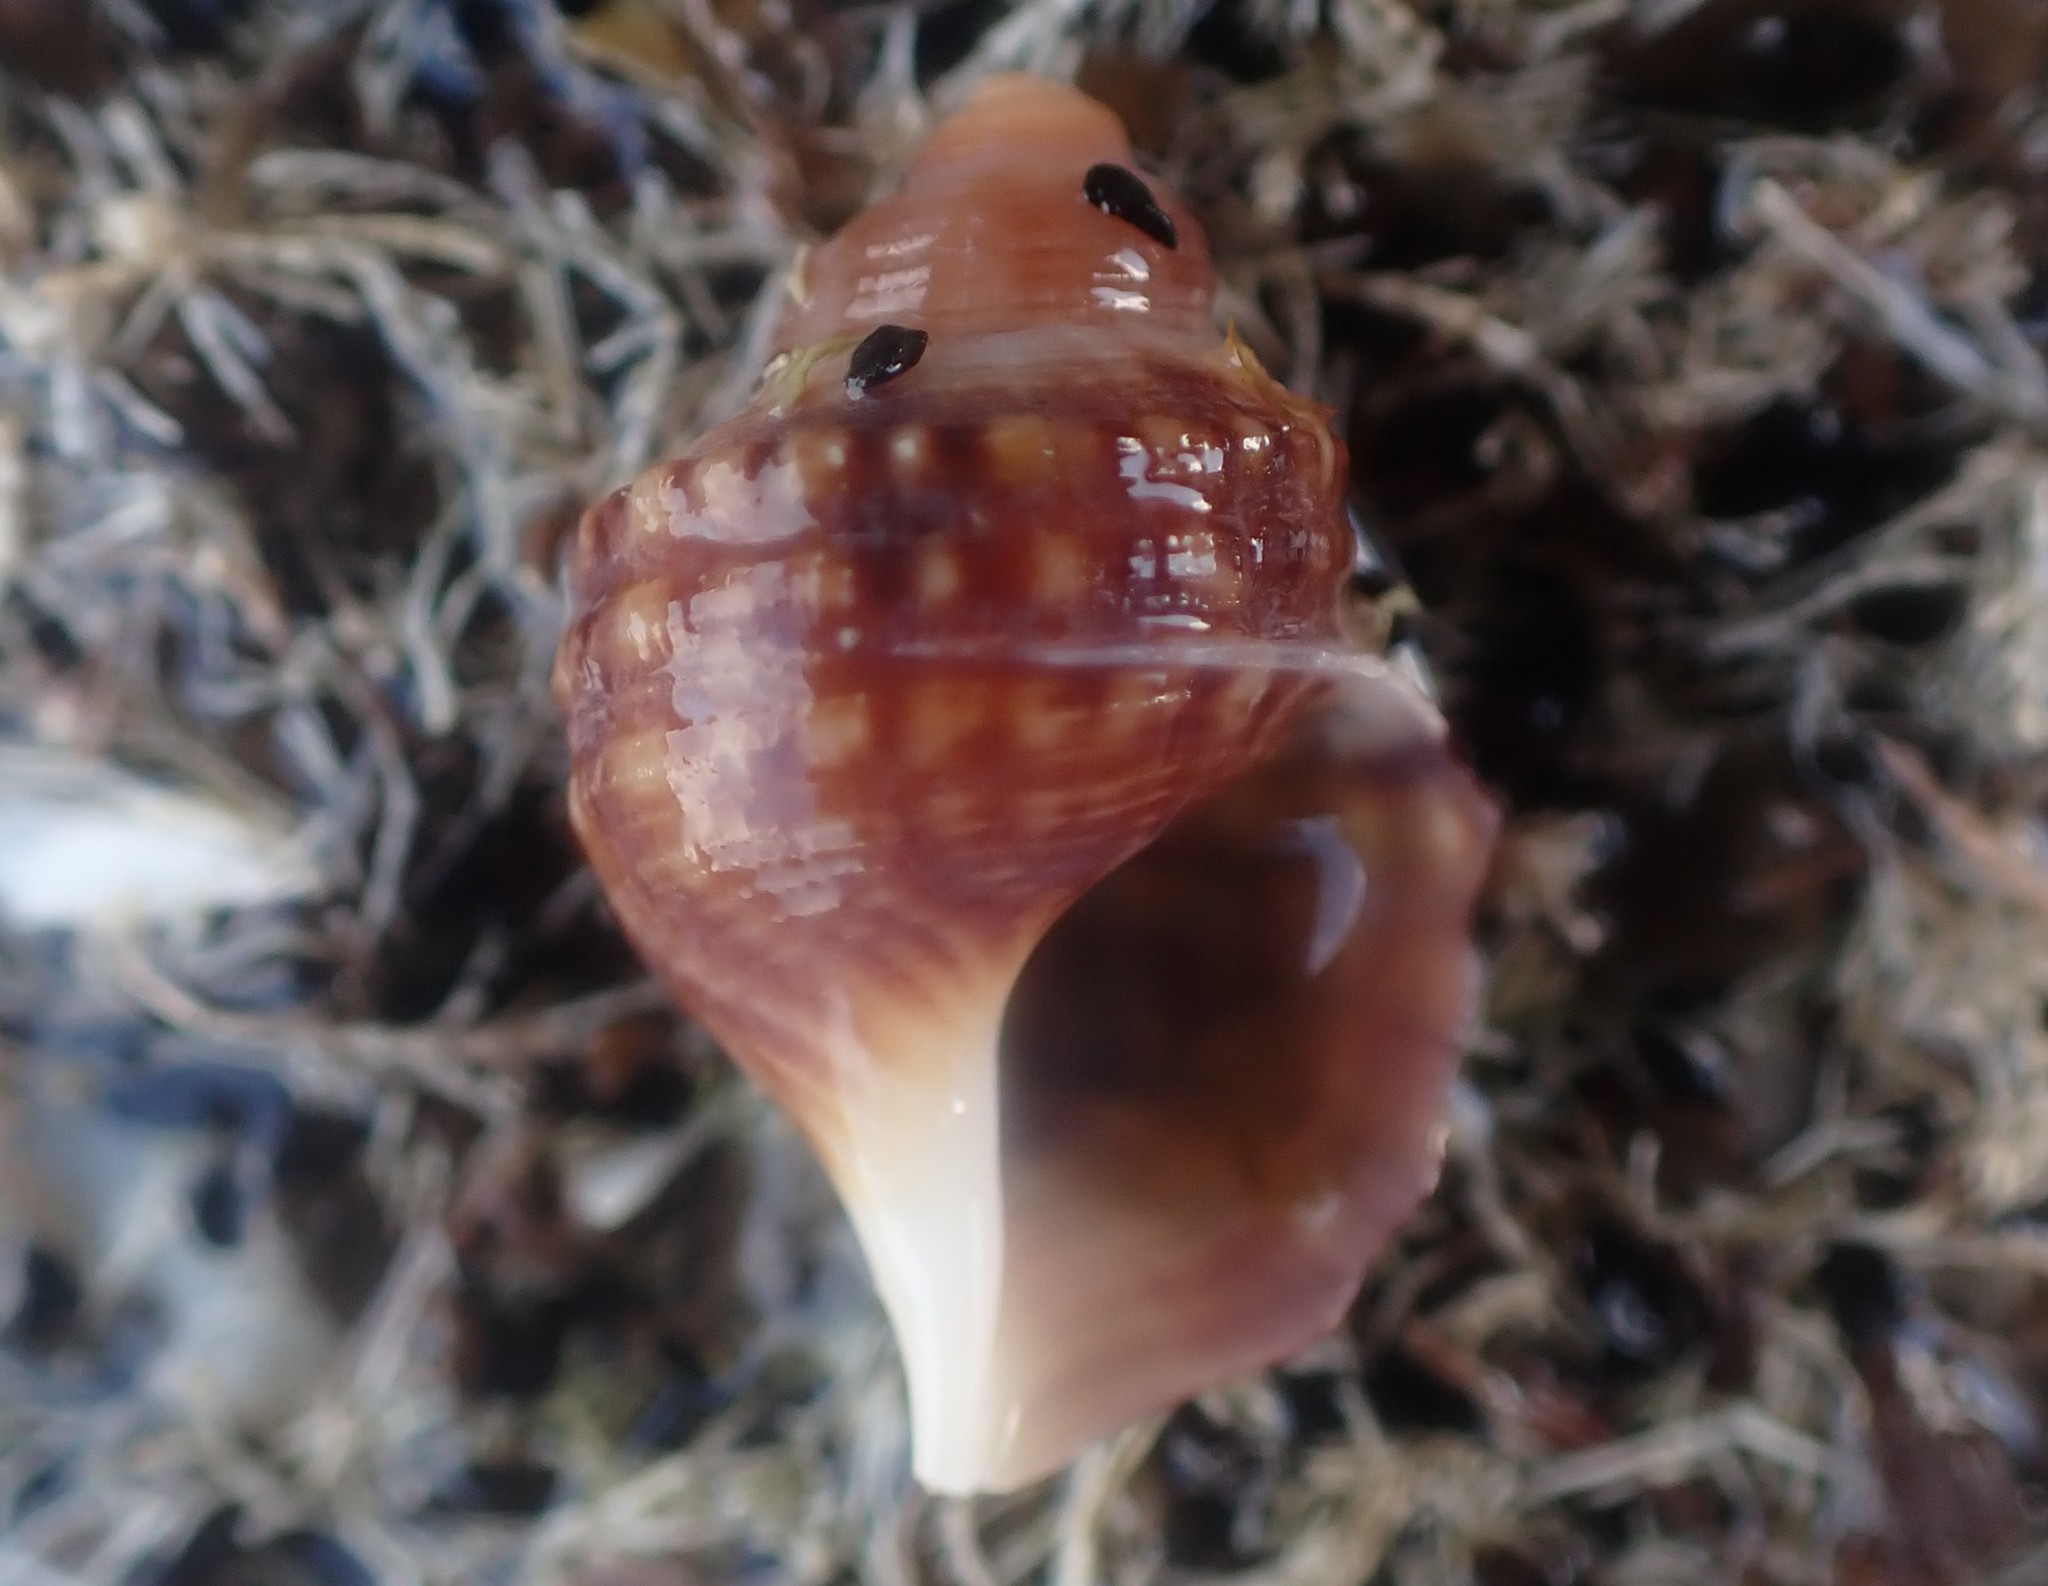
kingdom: Animalia
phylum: Mollusca
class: Gastropoda
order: Littorinimorpha
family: Struthiolariidae
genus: Pelicaria
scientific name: Pelicaria vermis
